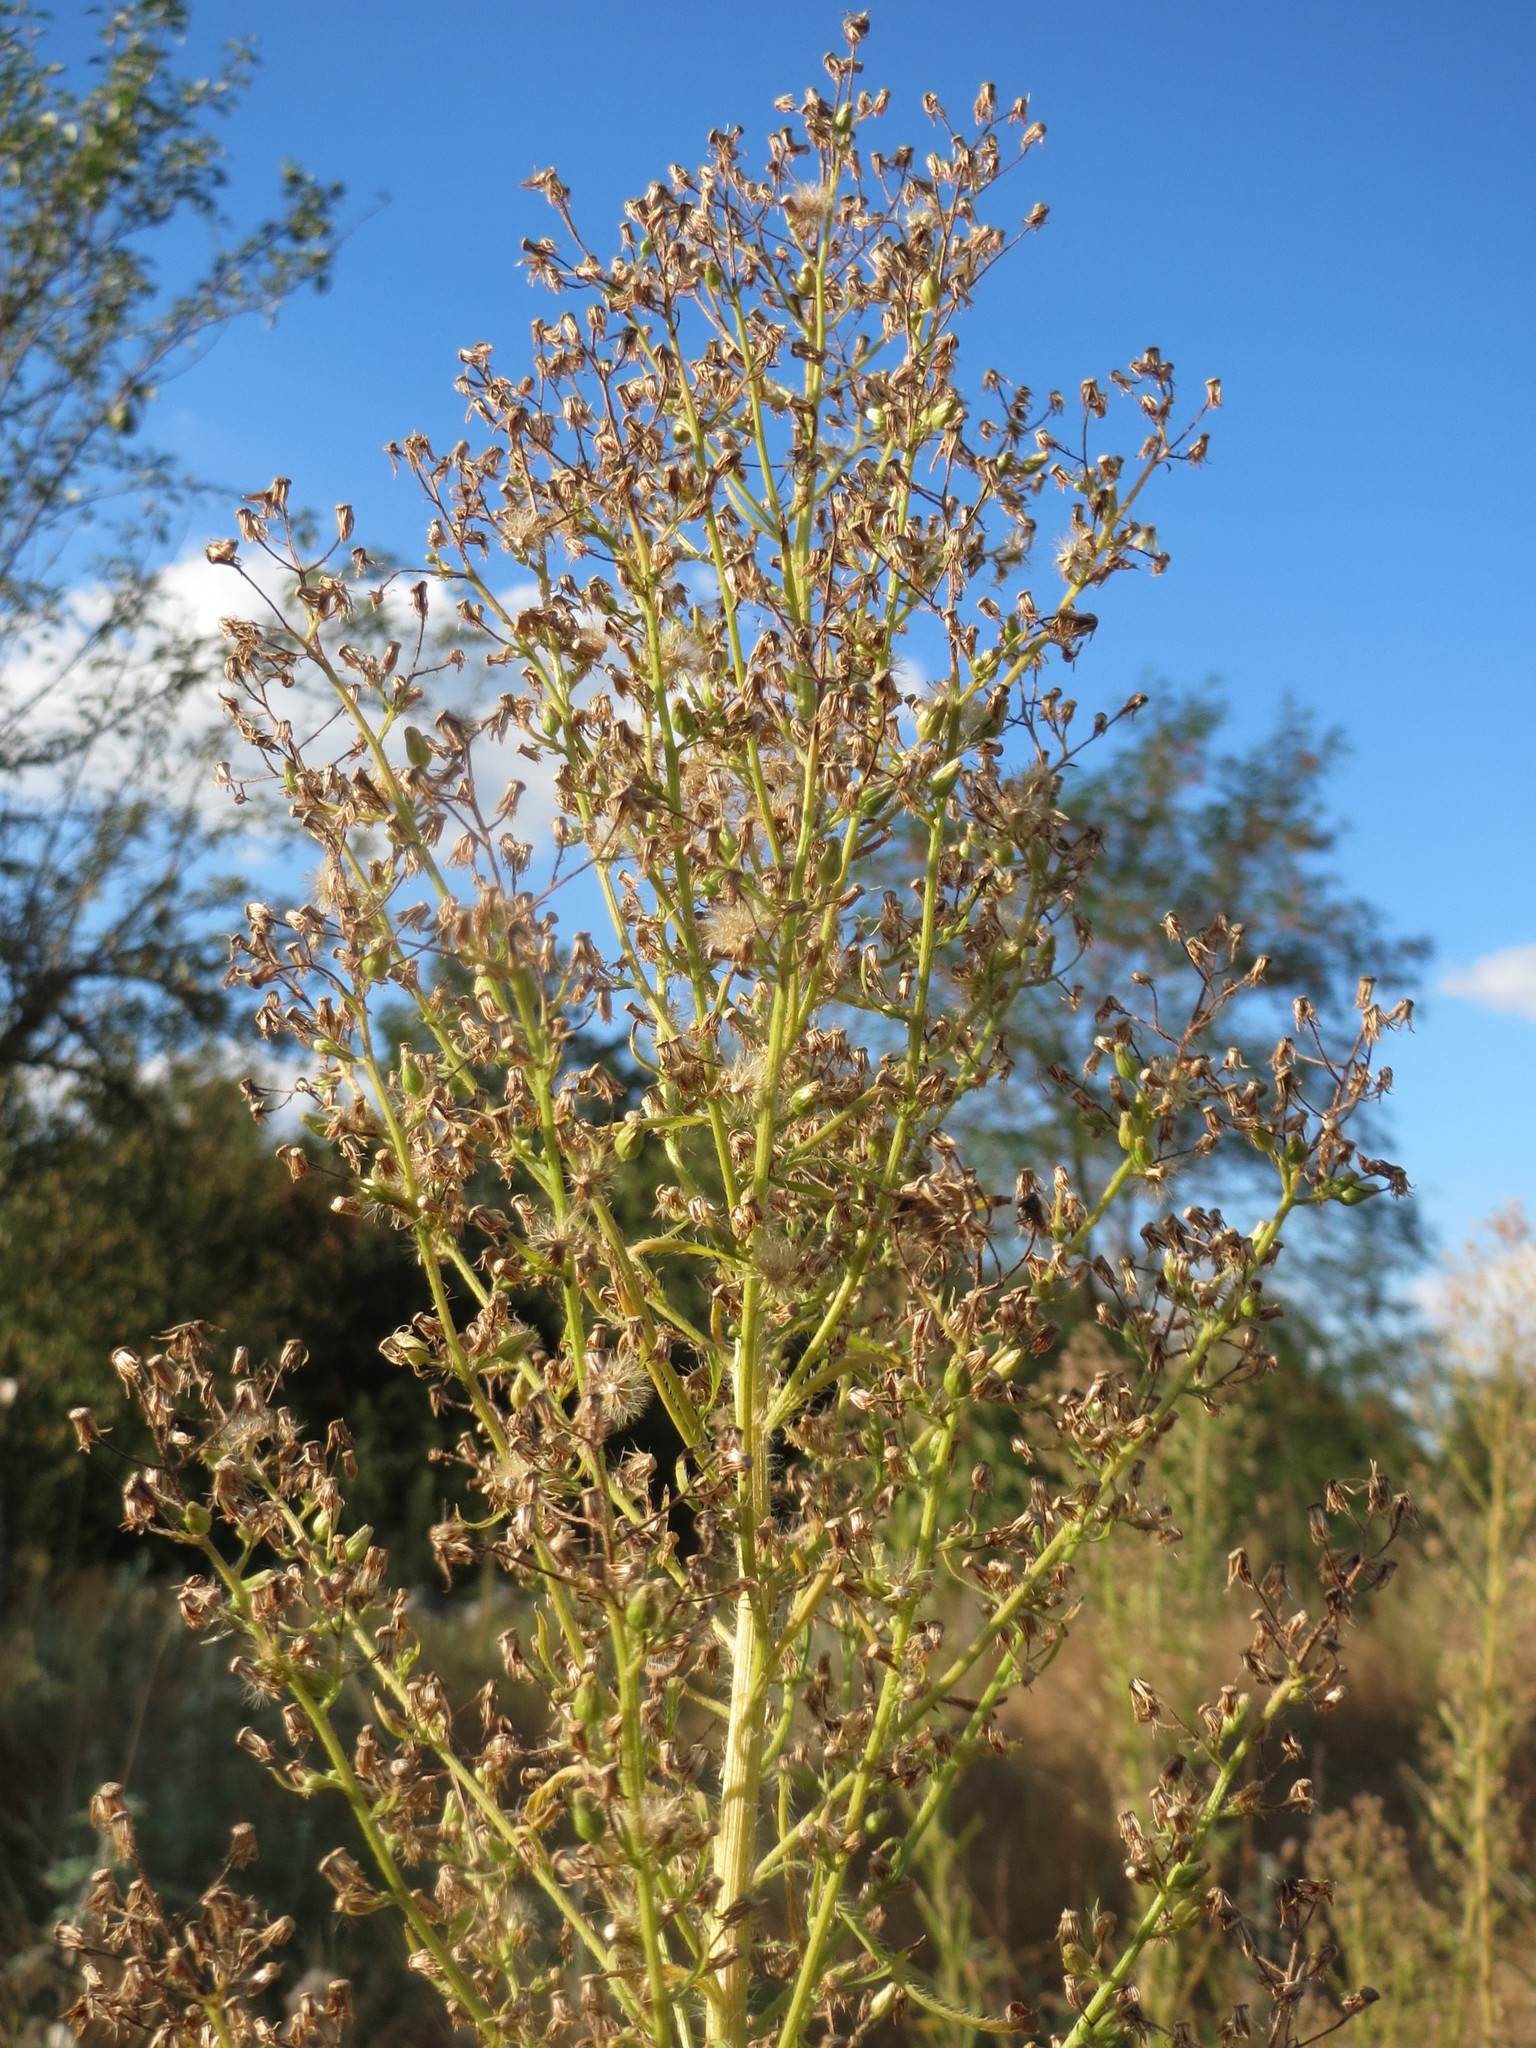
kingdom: Plantae
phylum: Tracheophyta
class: Magnoliopsida
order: Asterales
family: Asteraceae
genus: Erigeron
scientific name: Erigeron canadensis
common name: Canadian fleabane
